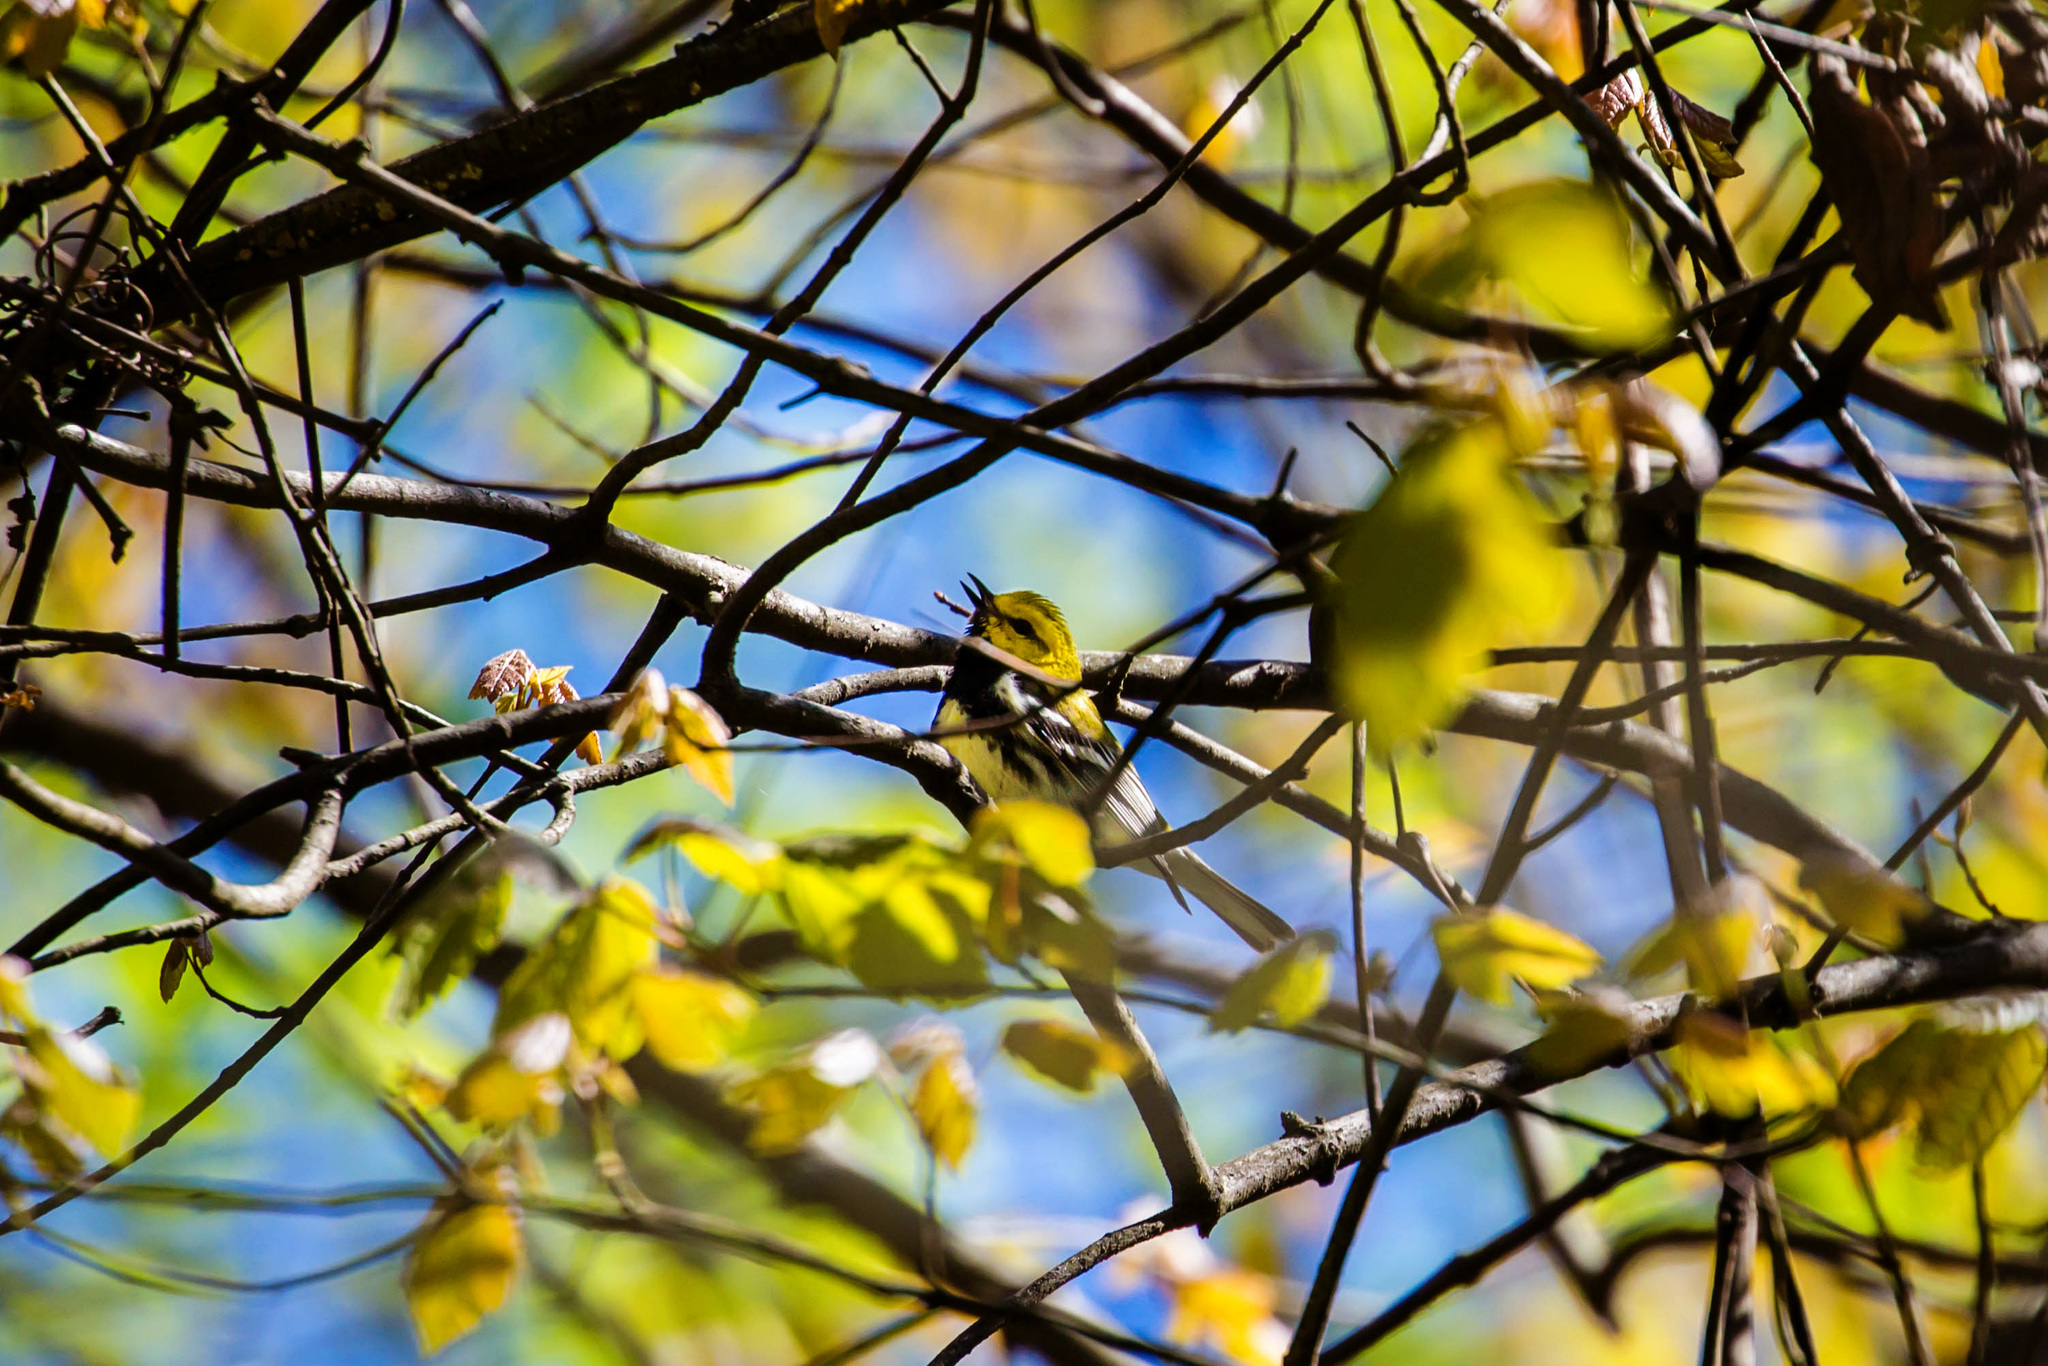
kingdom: Animalia
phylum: Chordata
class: Aves
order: Passeriformes
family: Parulidae
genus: Setophaga
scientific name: Setophaga virens
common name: Black-throated green warbler
